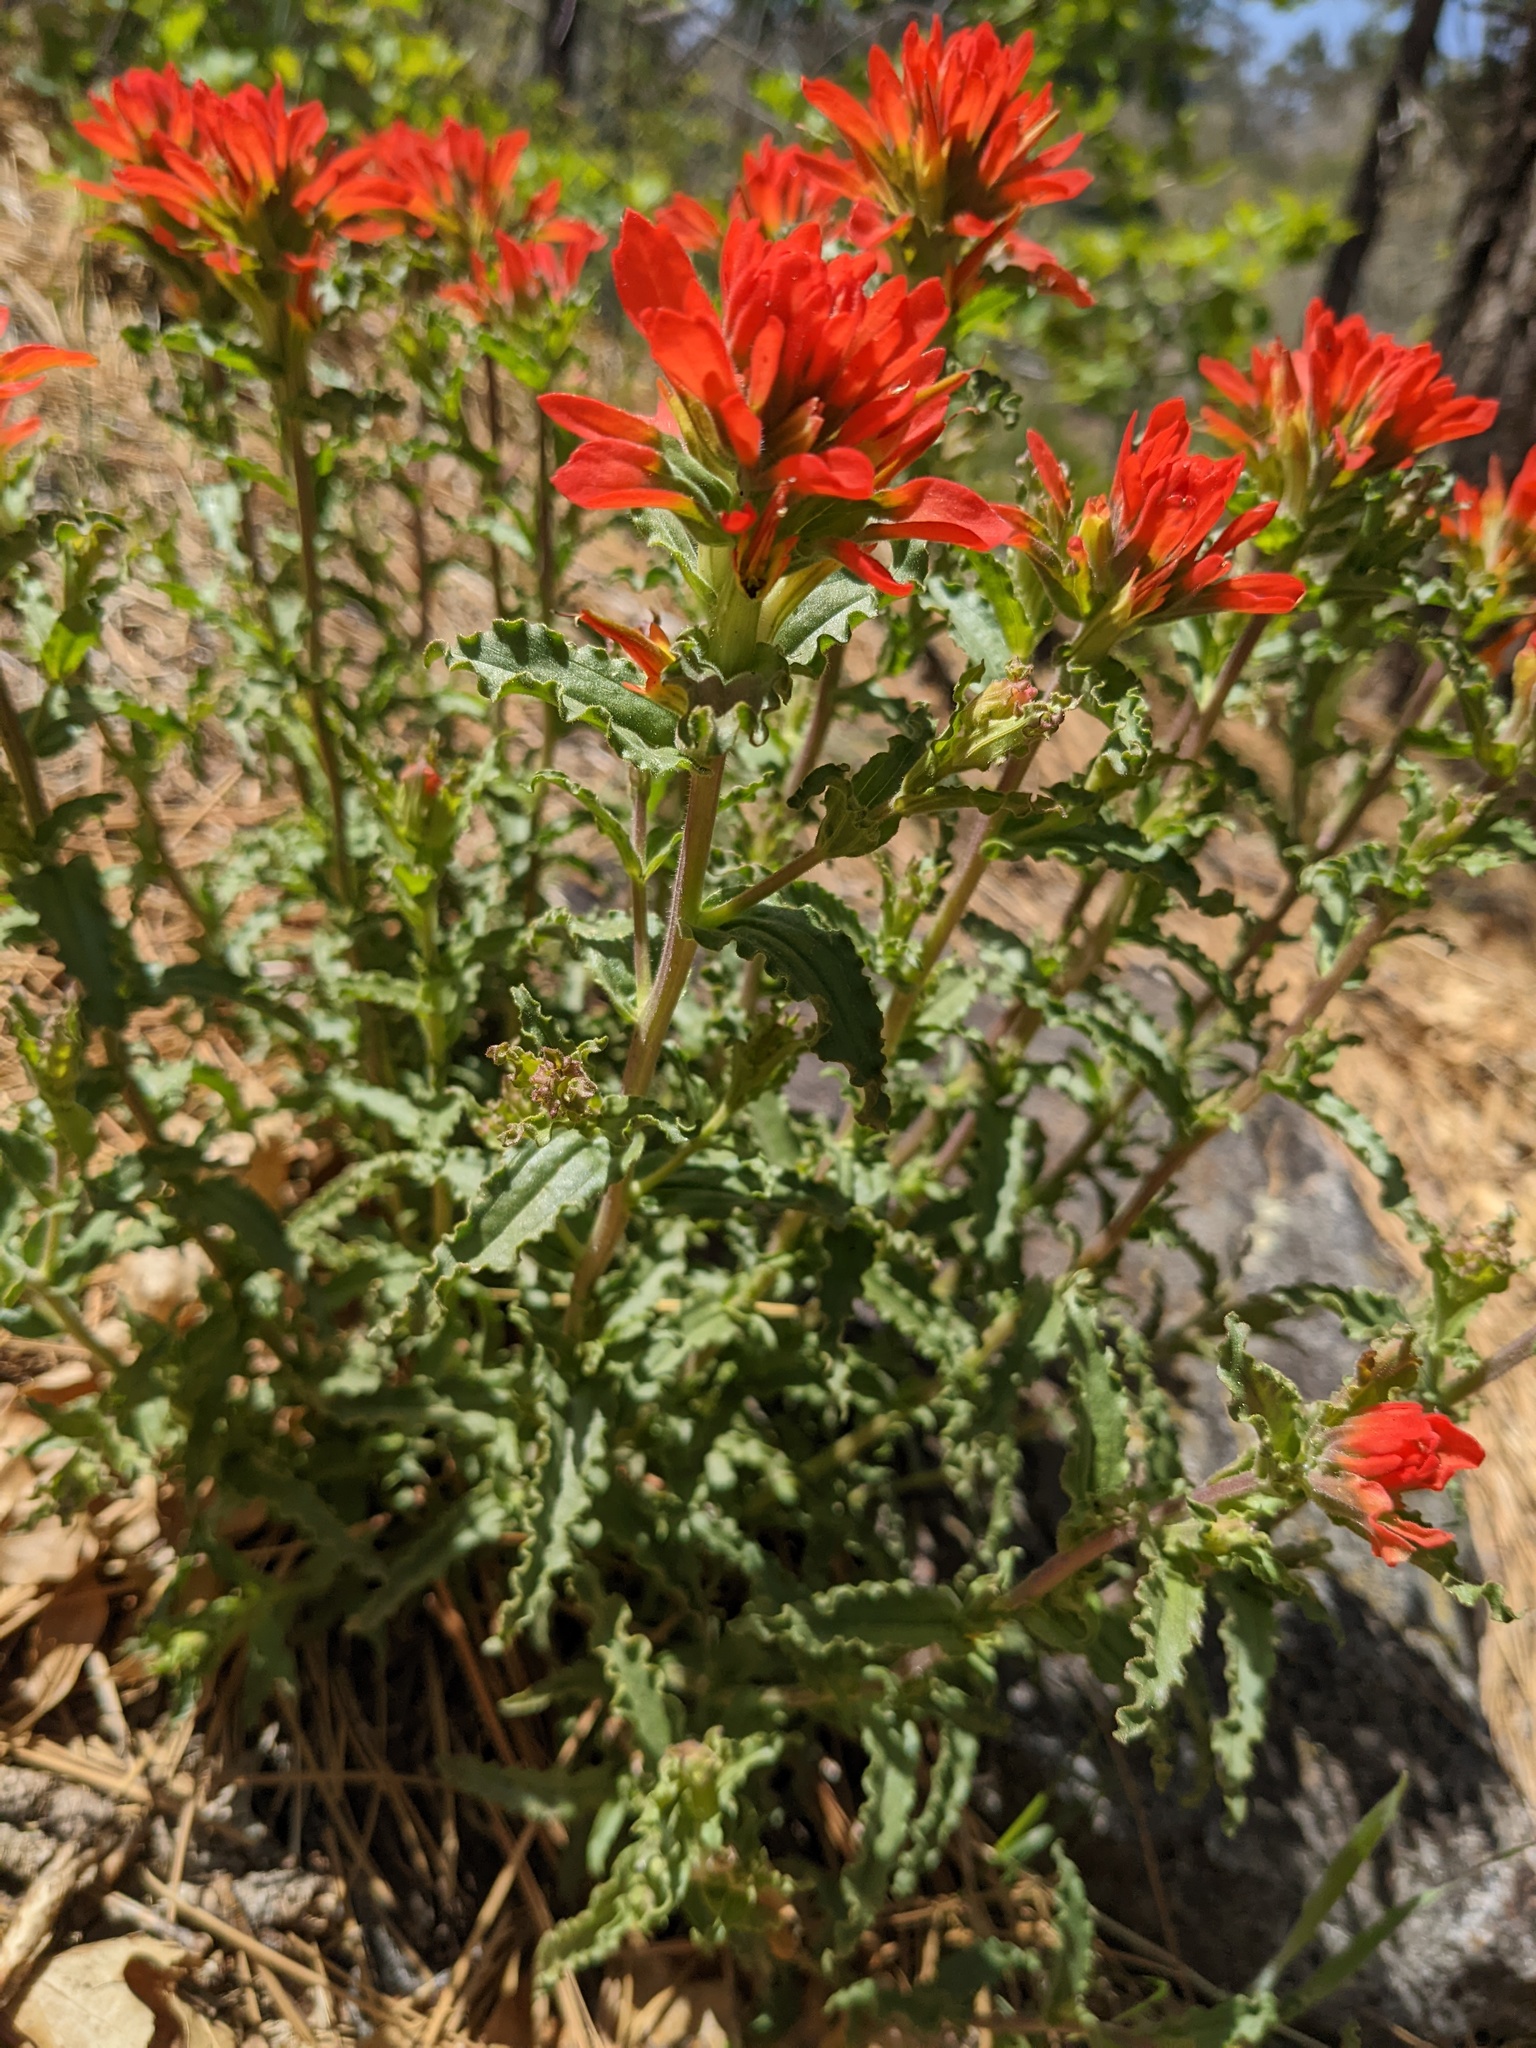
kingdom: Plantae
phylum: Tracheophyta
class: Magnoliopsida
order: Lamiales
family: Orobanchaceae
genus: Castilleja
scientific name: Castilleja martini
